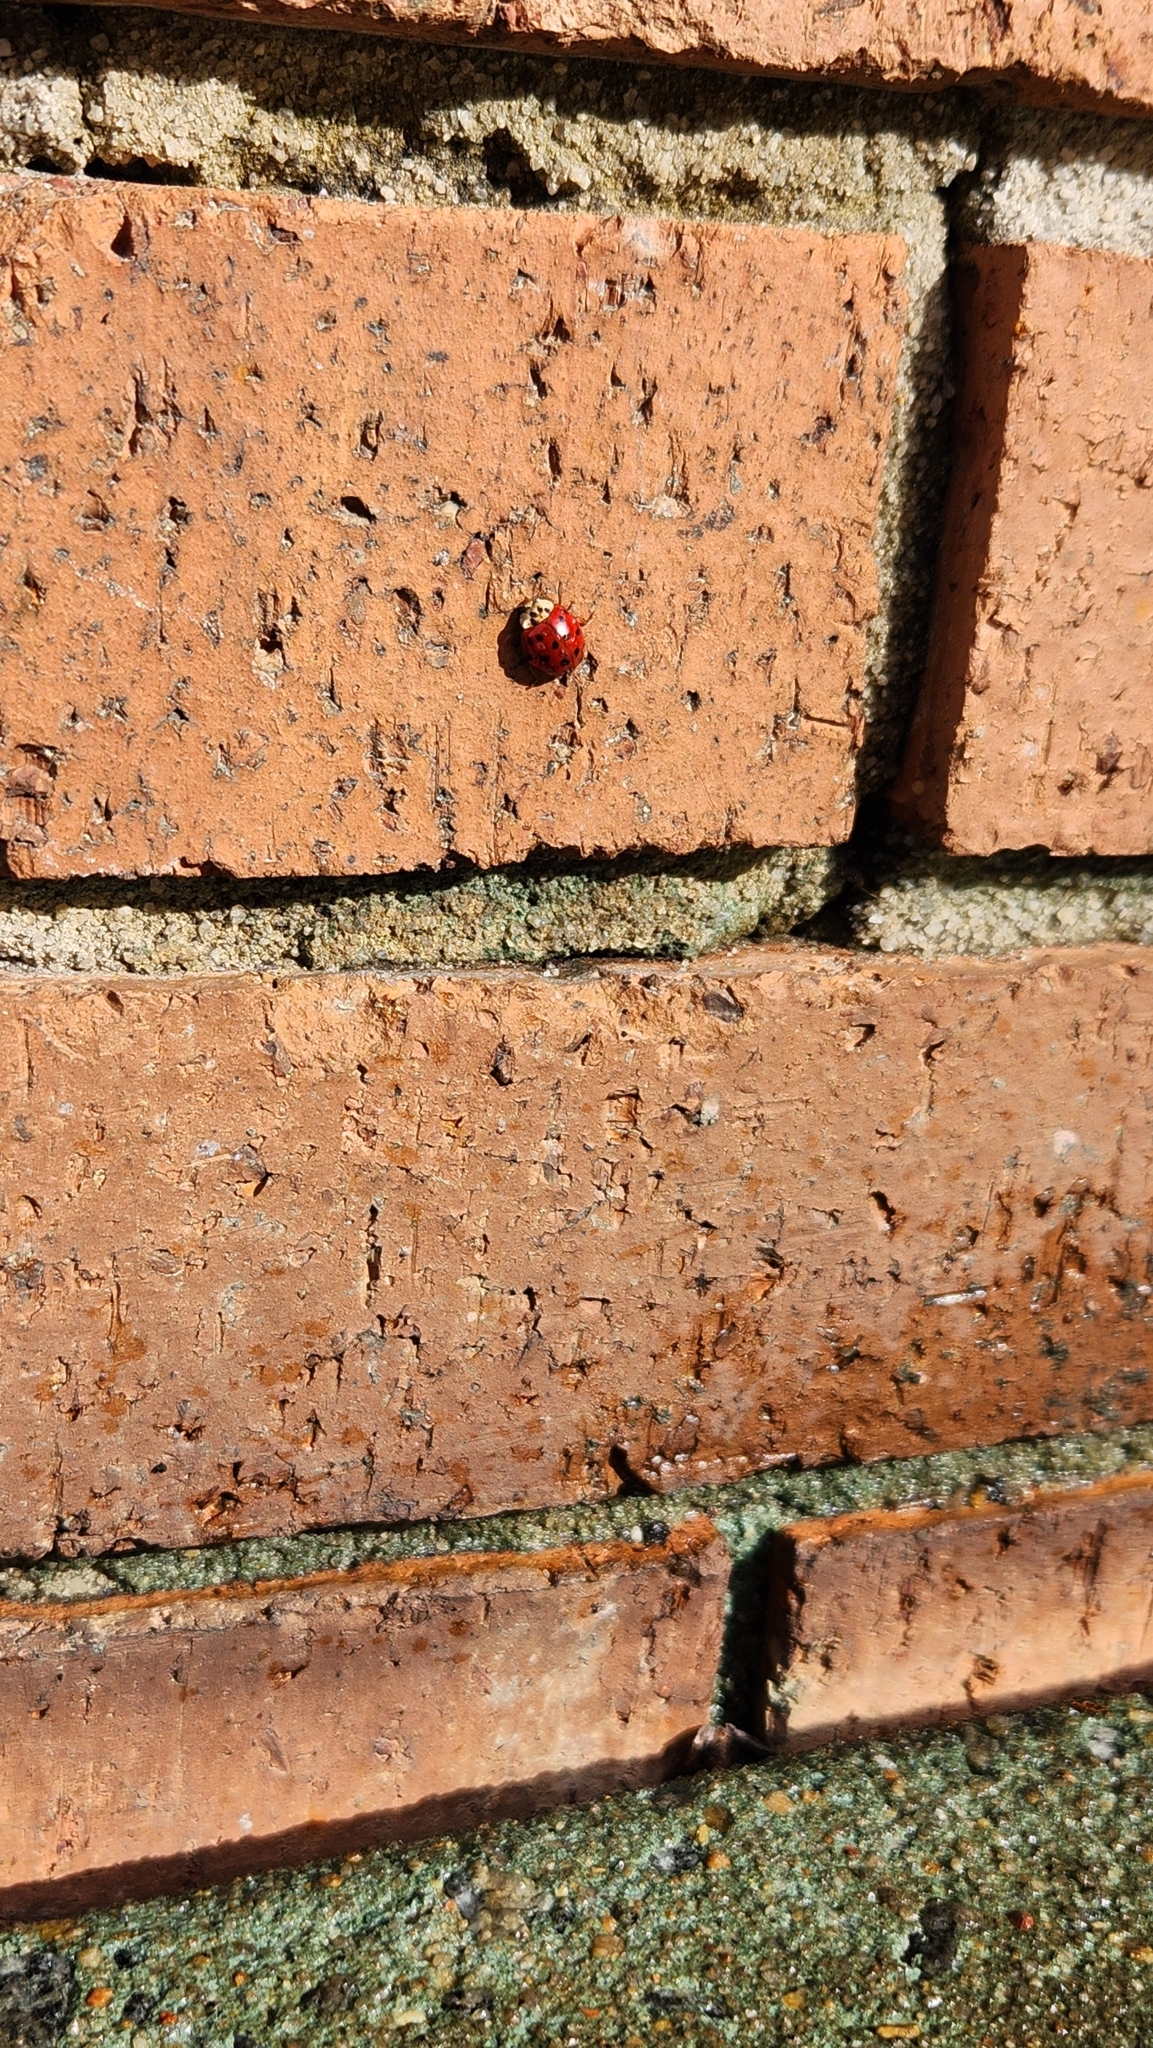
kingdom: Animalia
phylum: Arthropoda
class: Insecta
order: Coleoptera
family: Coccinellidae
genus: Harmonia
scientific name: Harmonia axyridis
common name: Harlequin ladybird
